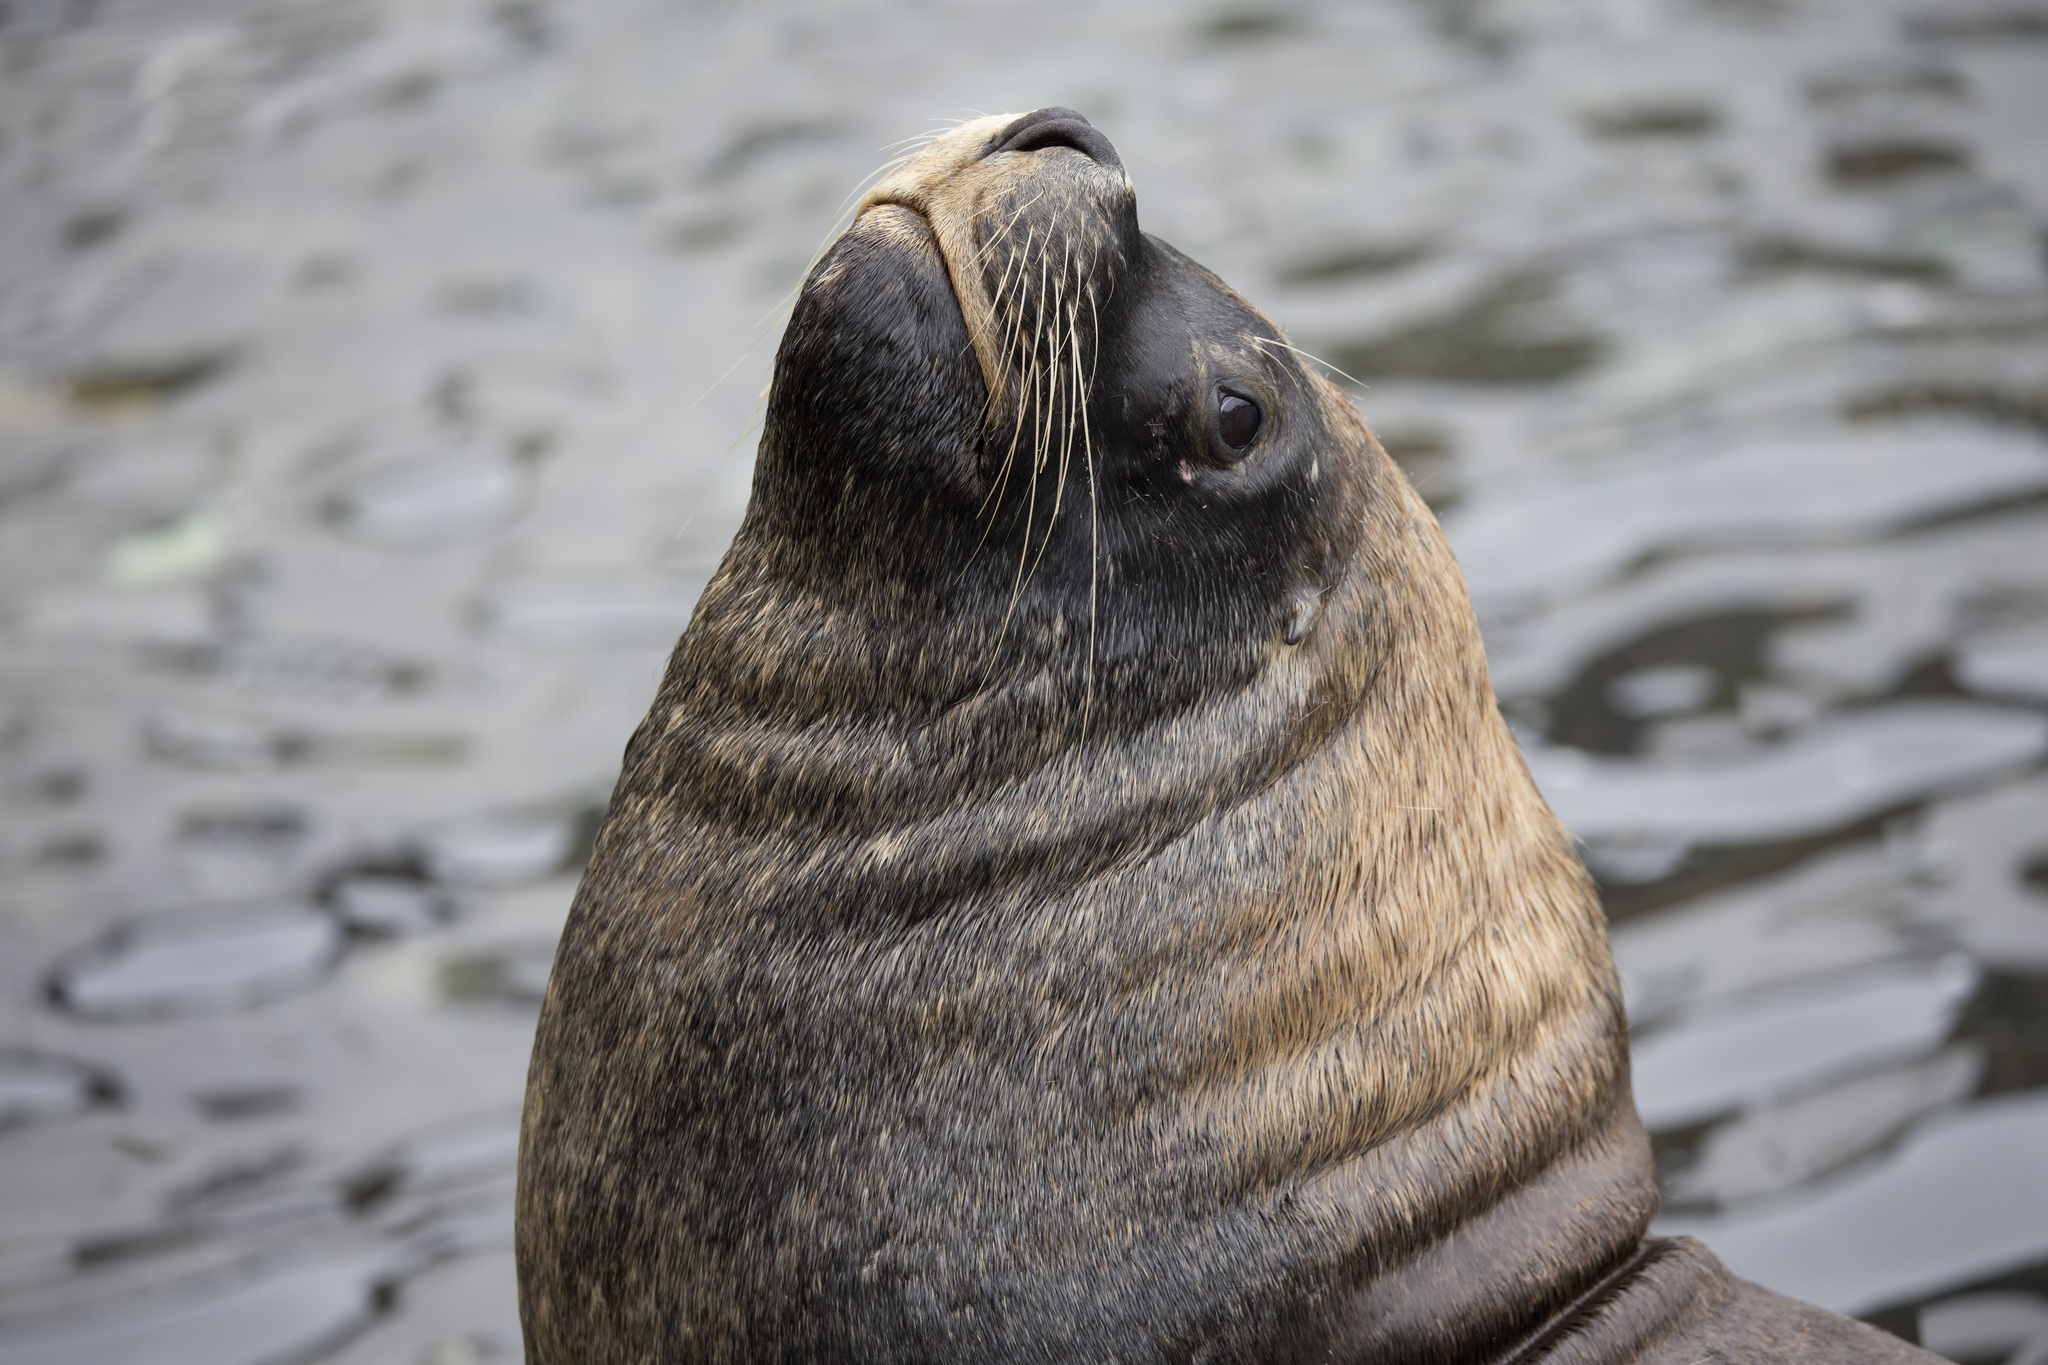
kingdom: Animalia
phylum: Chordata
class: Mammalia
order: Carnivora
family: Otariidae
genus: Otaria
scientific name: Otaria byronia
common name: South american sea lion
